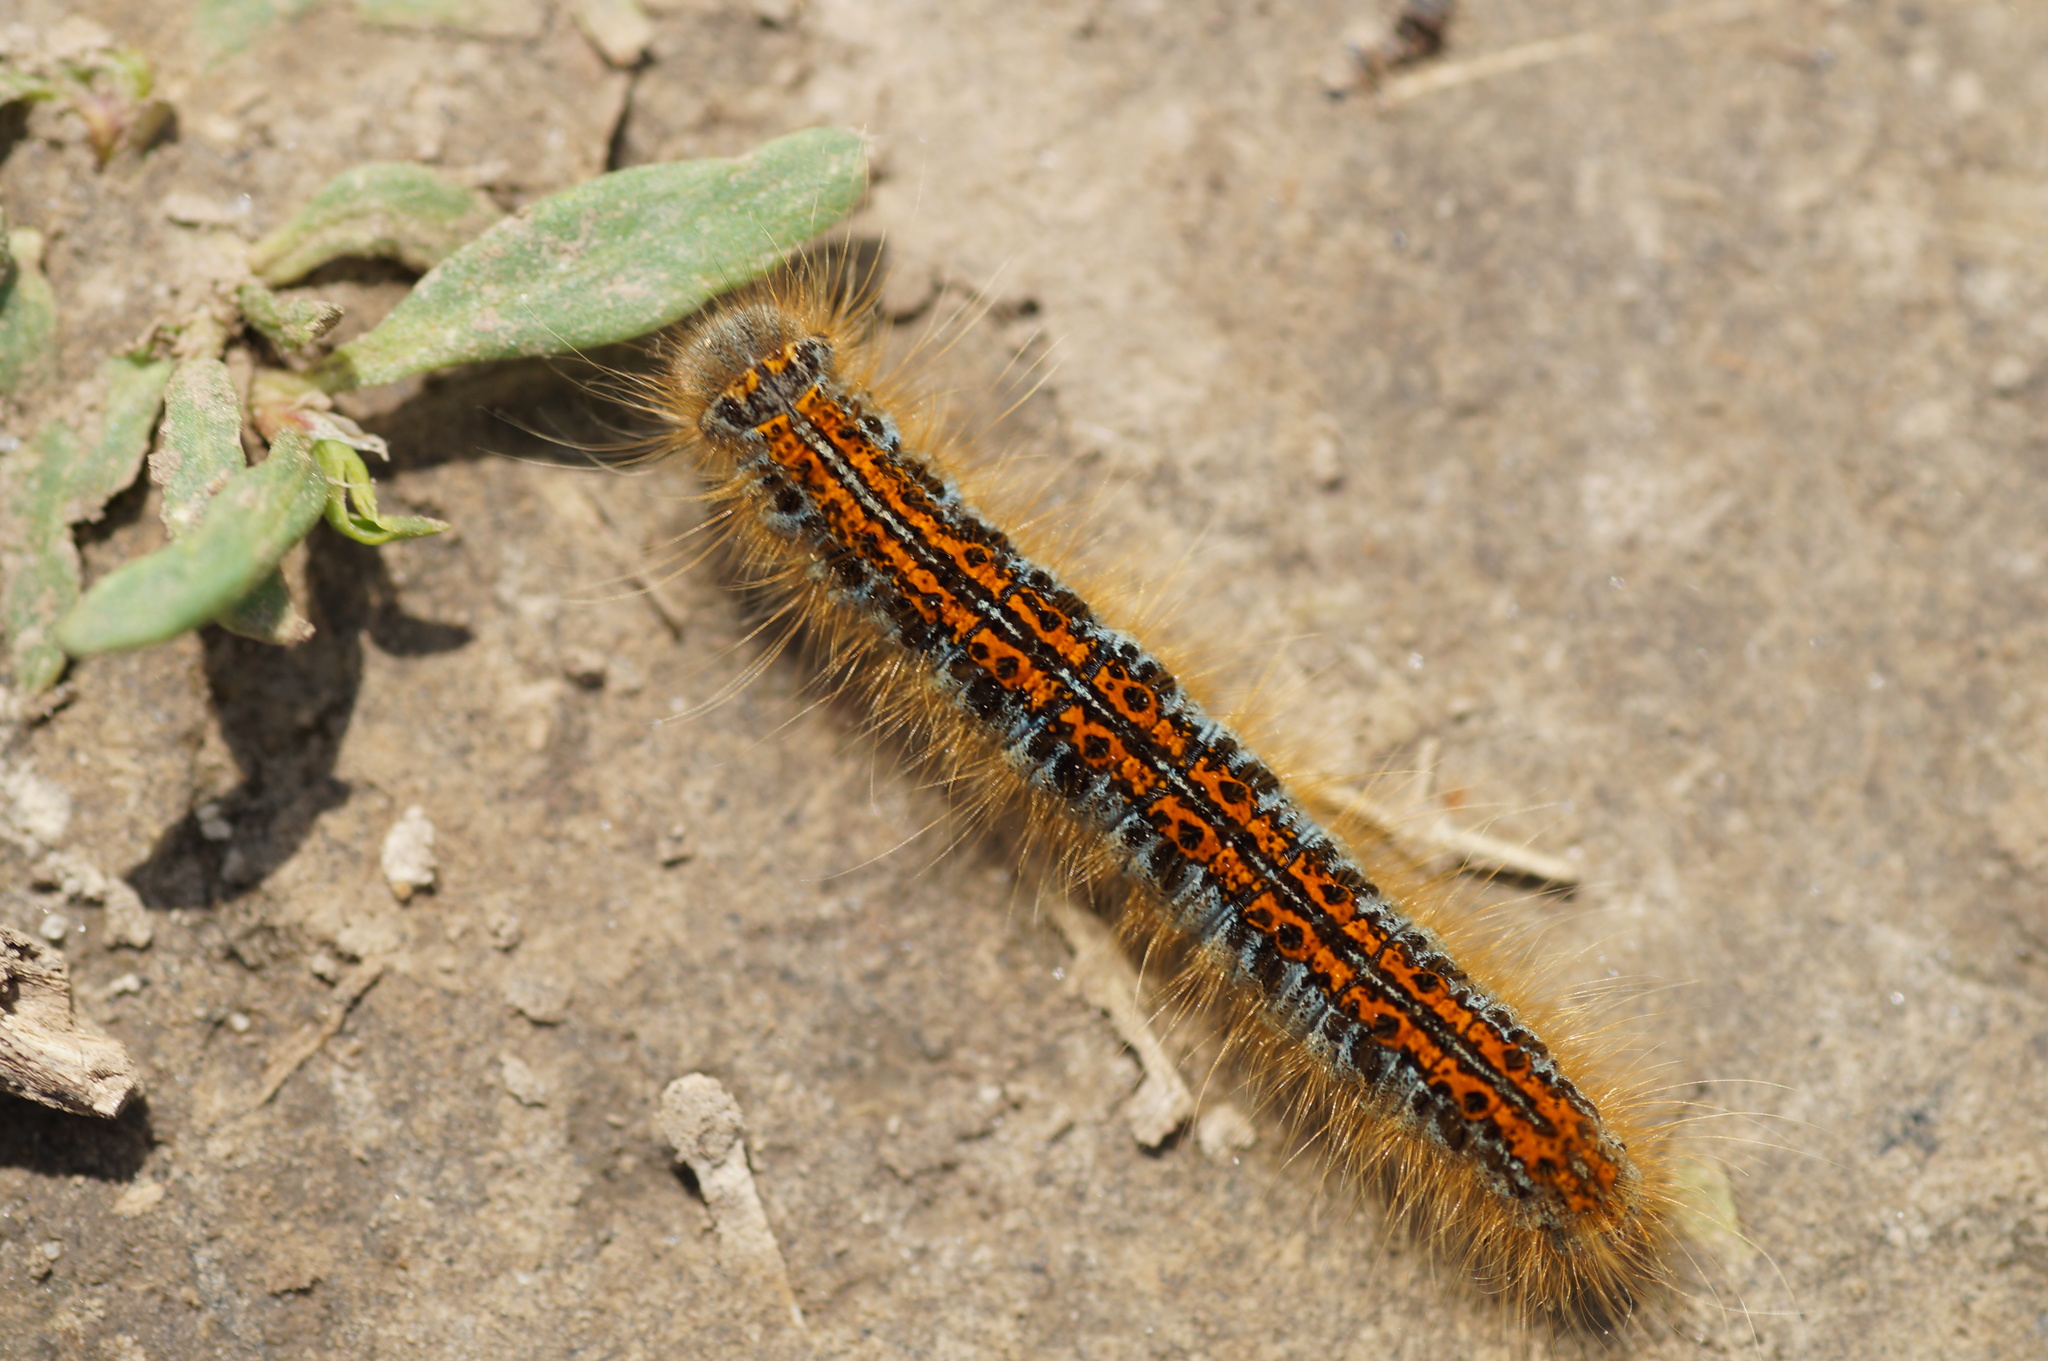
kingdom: Animalia
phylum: Arthropoda
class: Insecta
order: Lepidoptera
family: Lasiocampidae
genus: Malacosoma
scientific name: Malacosoma castrense
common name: Ground lackey
